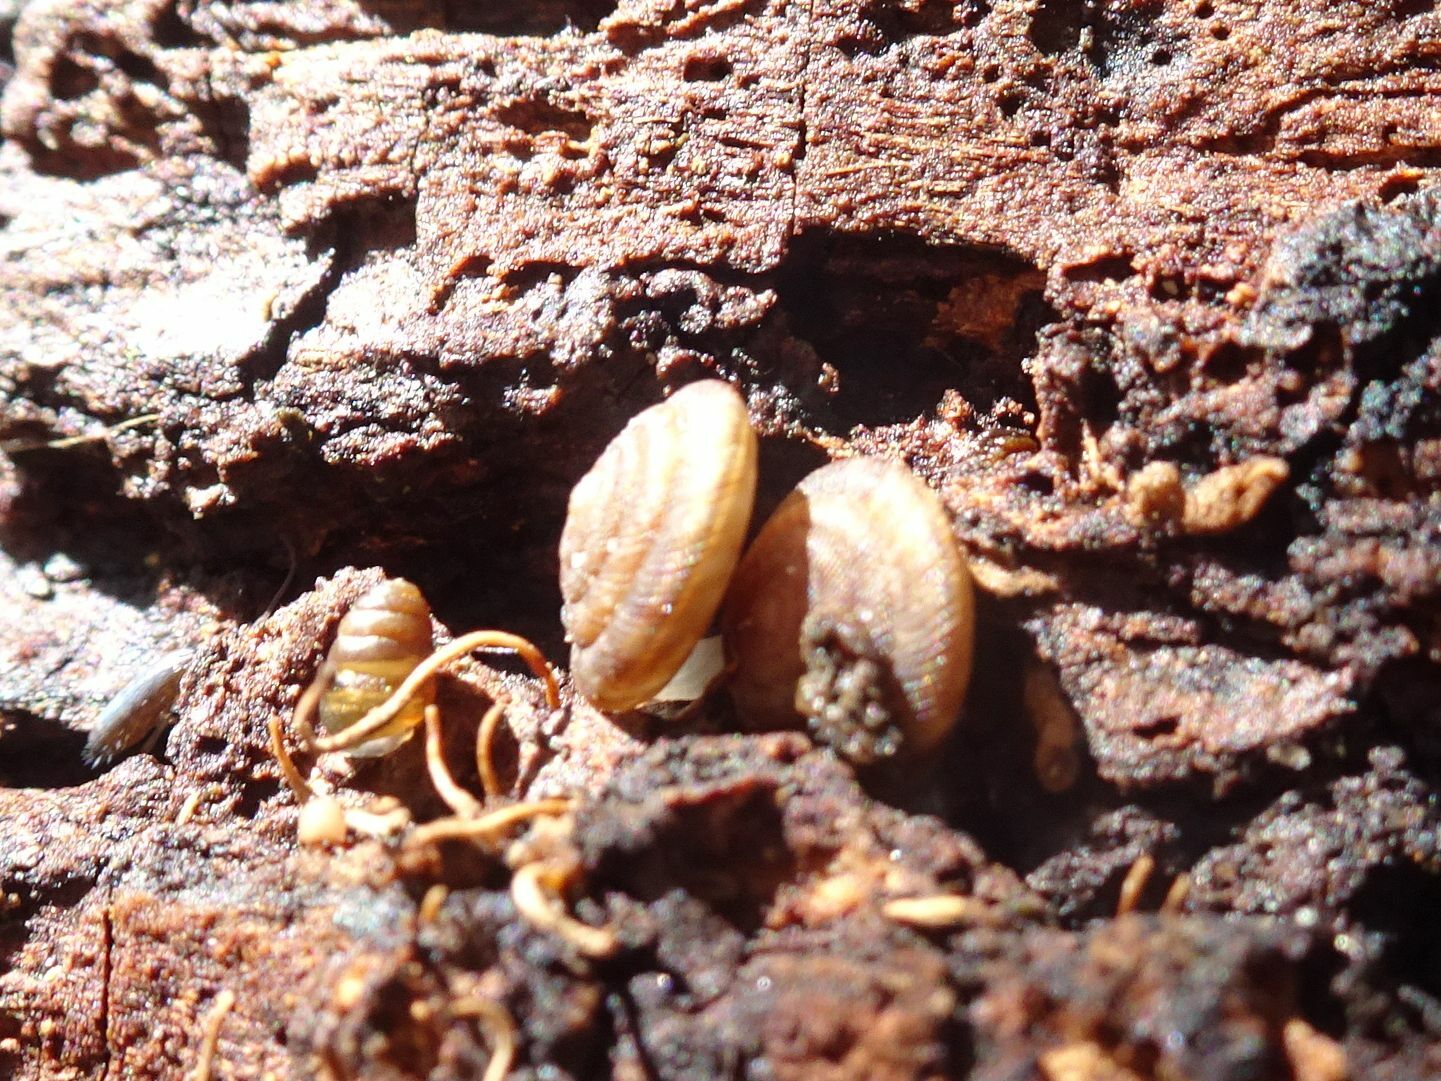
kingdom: Animalia
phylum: Mollusca
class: Gastropoda
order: Stylommatophora
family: Discidae
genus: Discus
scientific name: Discus rotundatus
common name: Rounded snail
